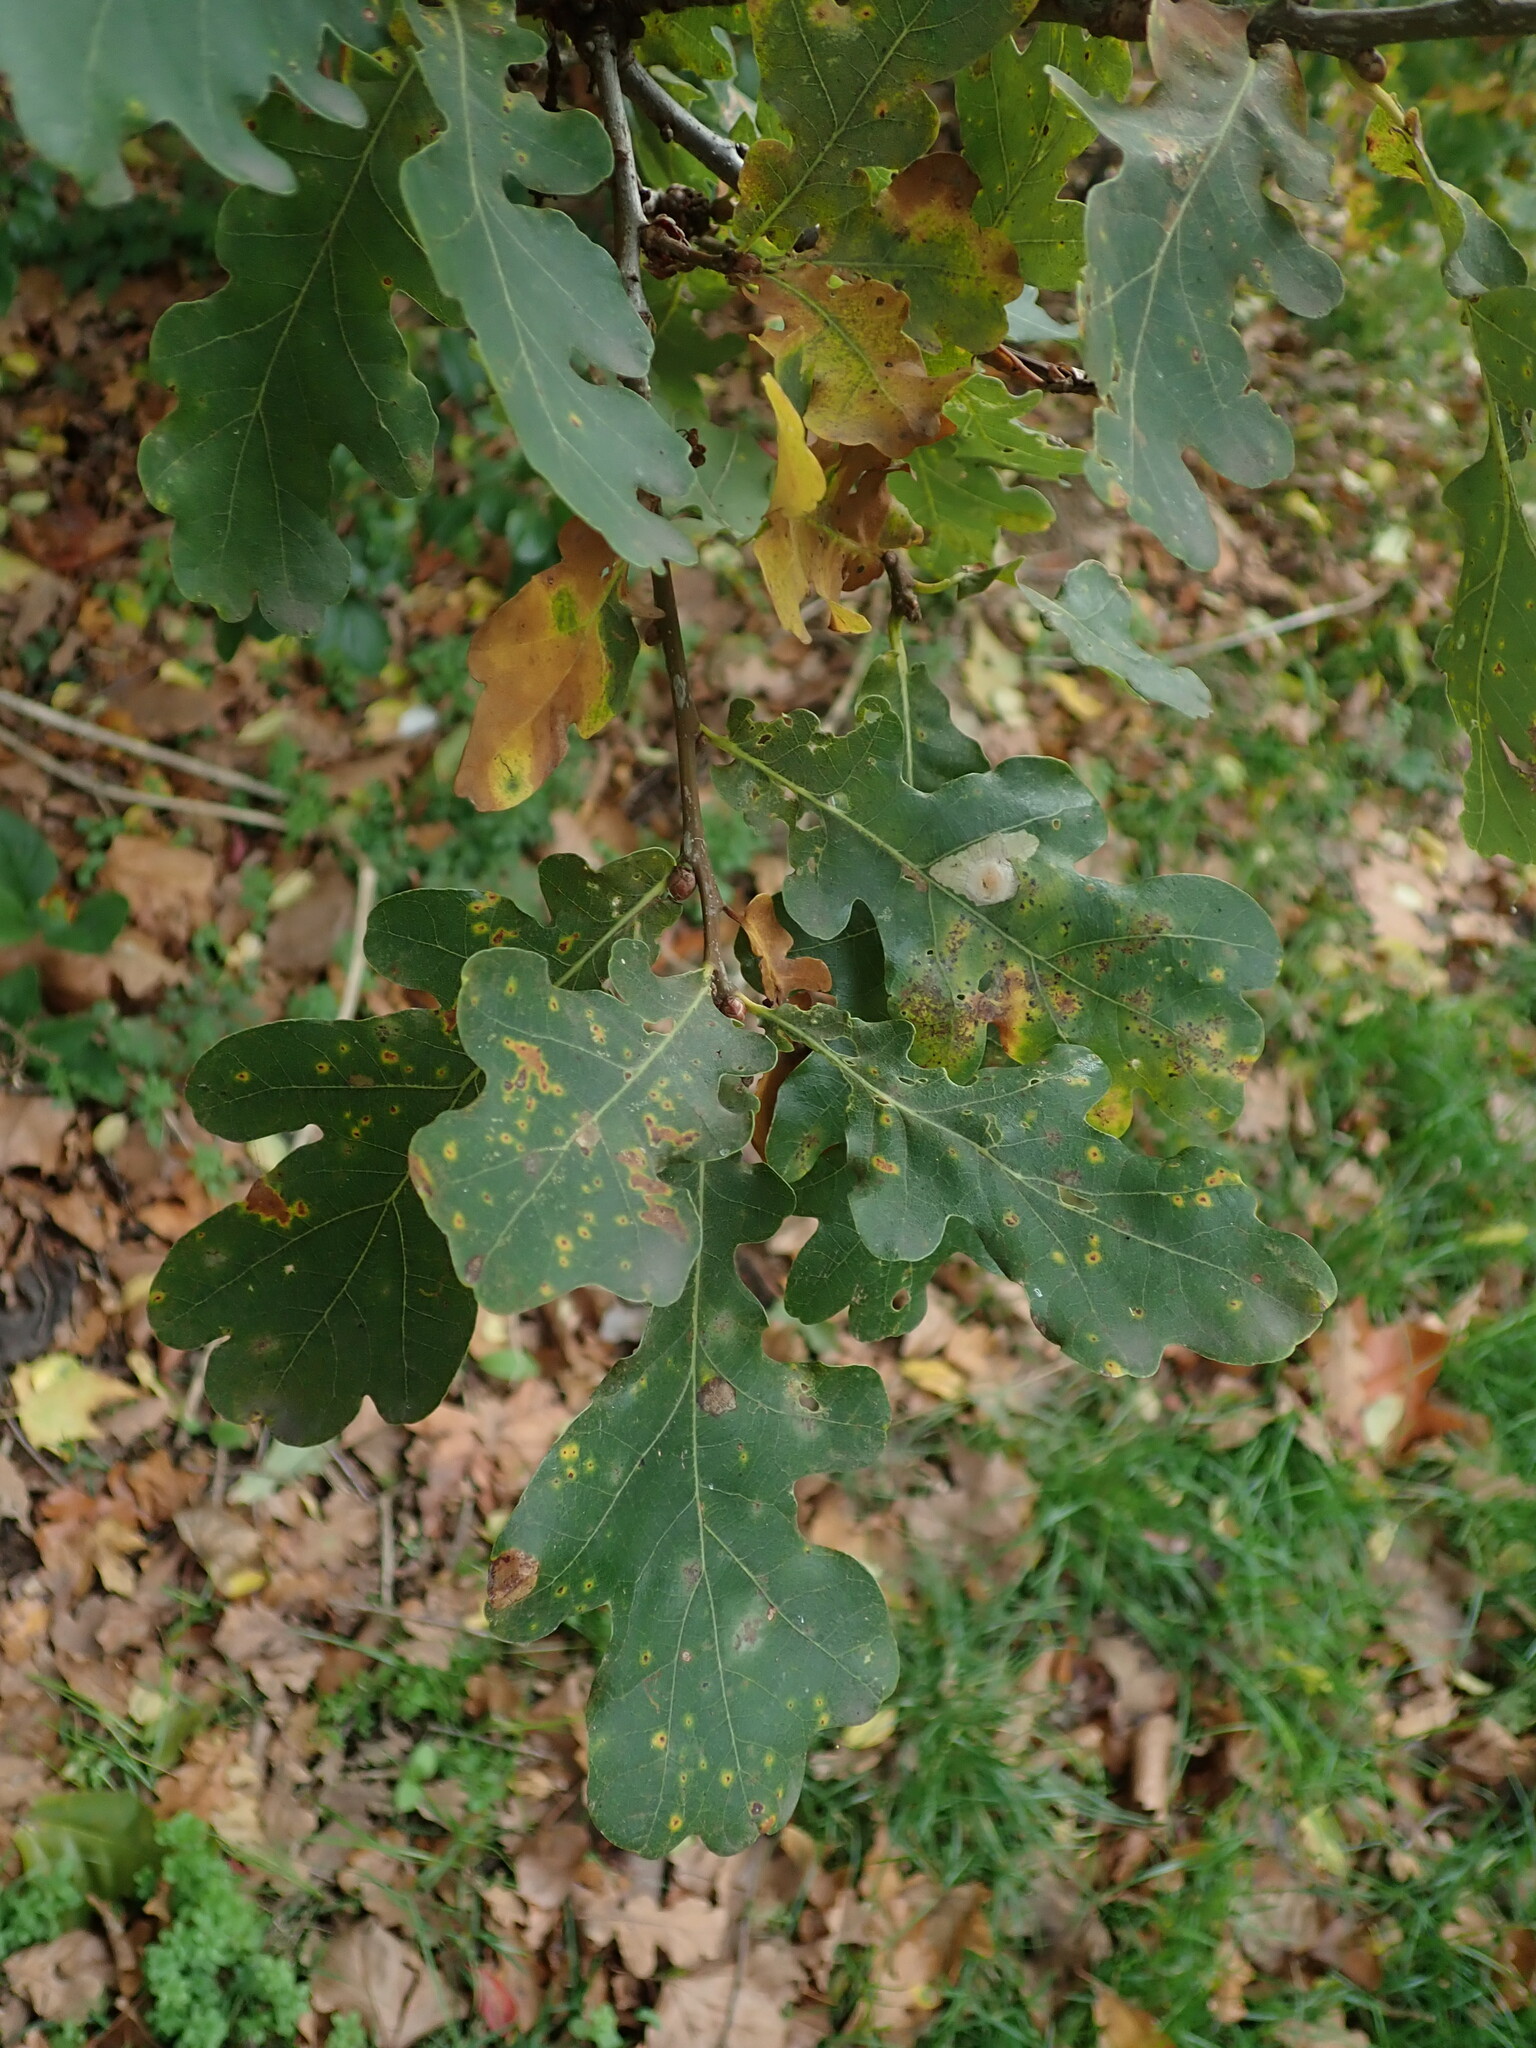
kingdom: Plantae
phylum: Tracheophyta
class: Magnoliopsida
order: Fagales
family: Fagaceae
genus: Quercus
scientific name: Quercus robur
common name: Pedunculate oak
